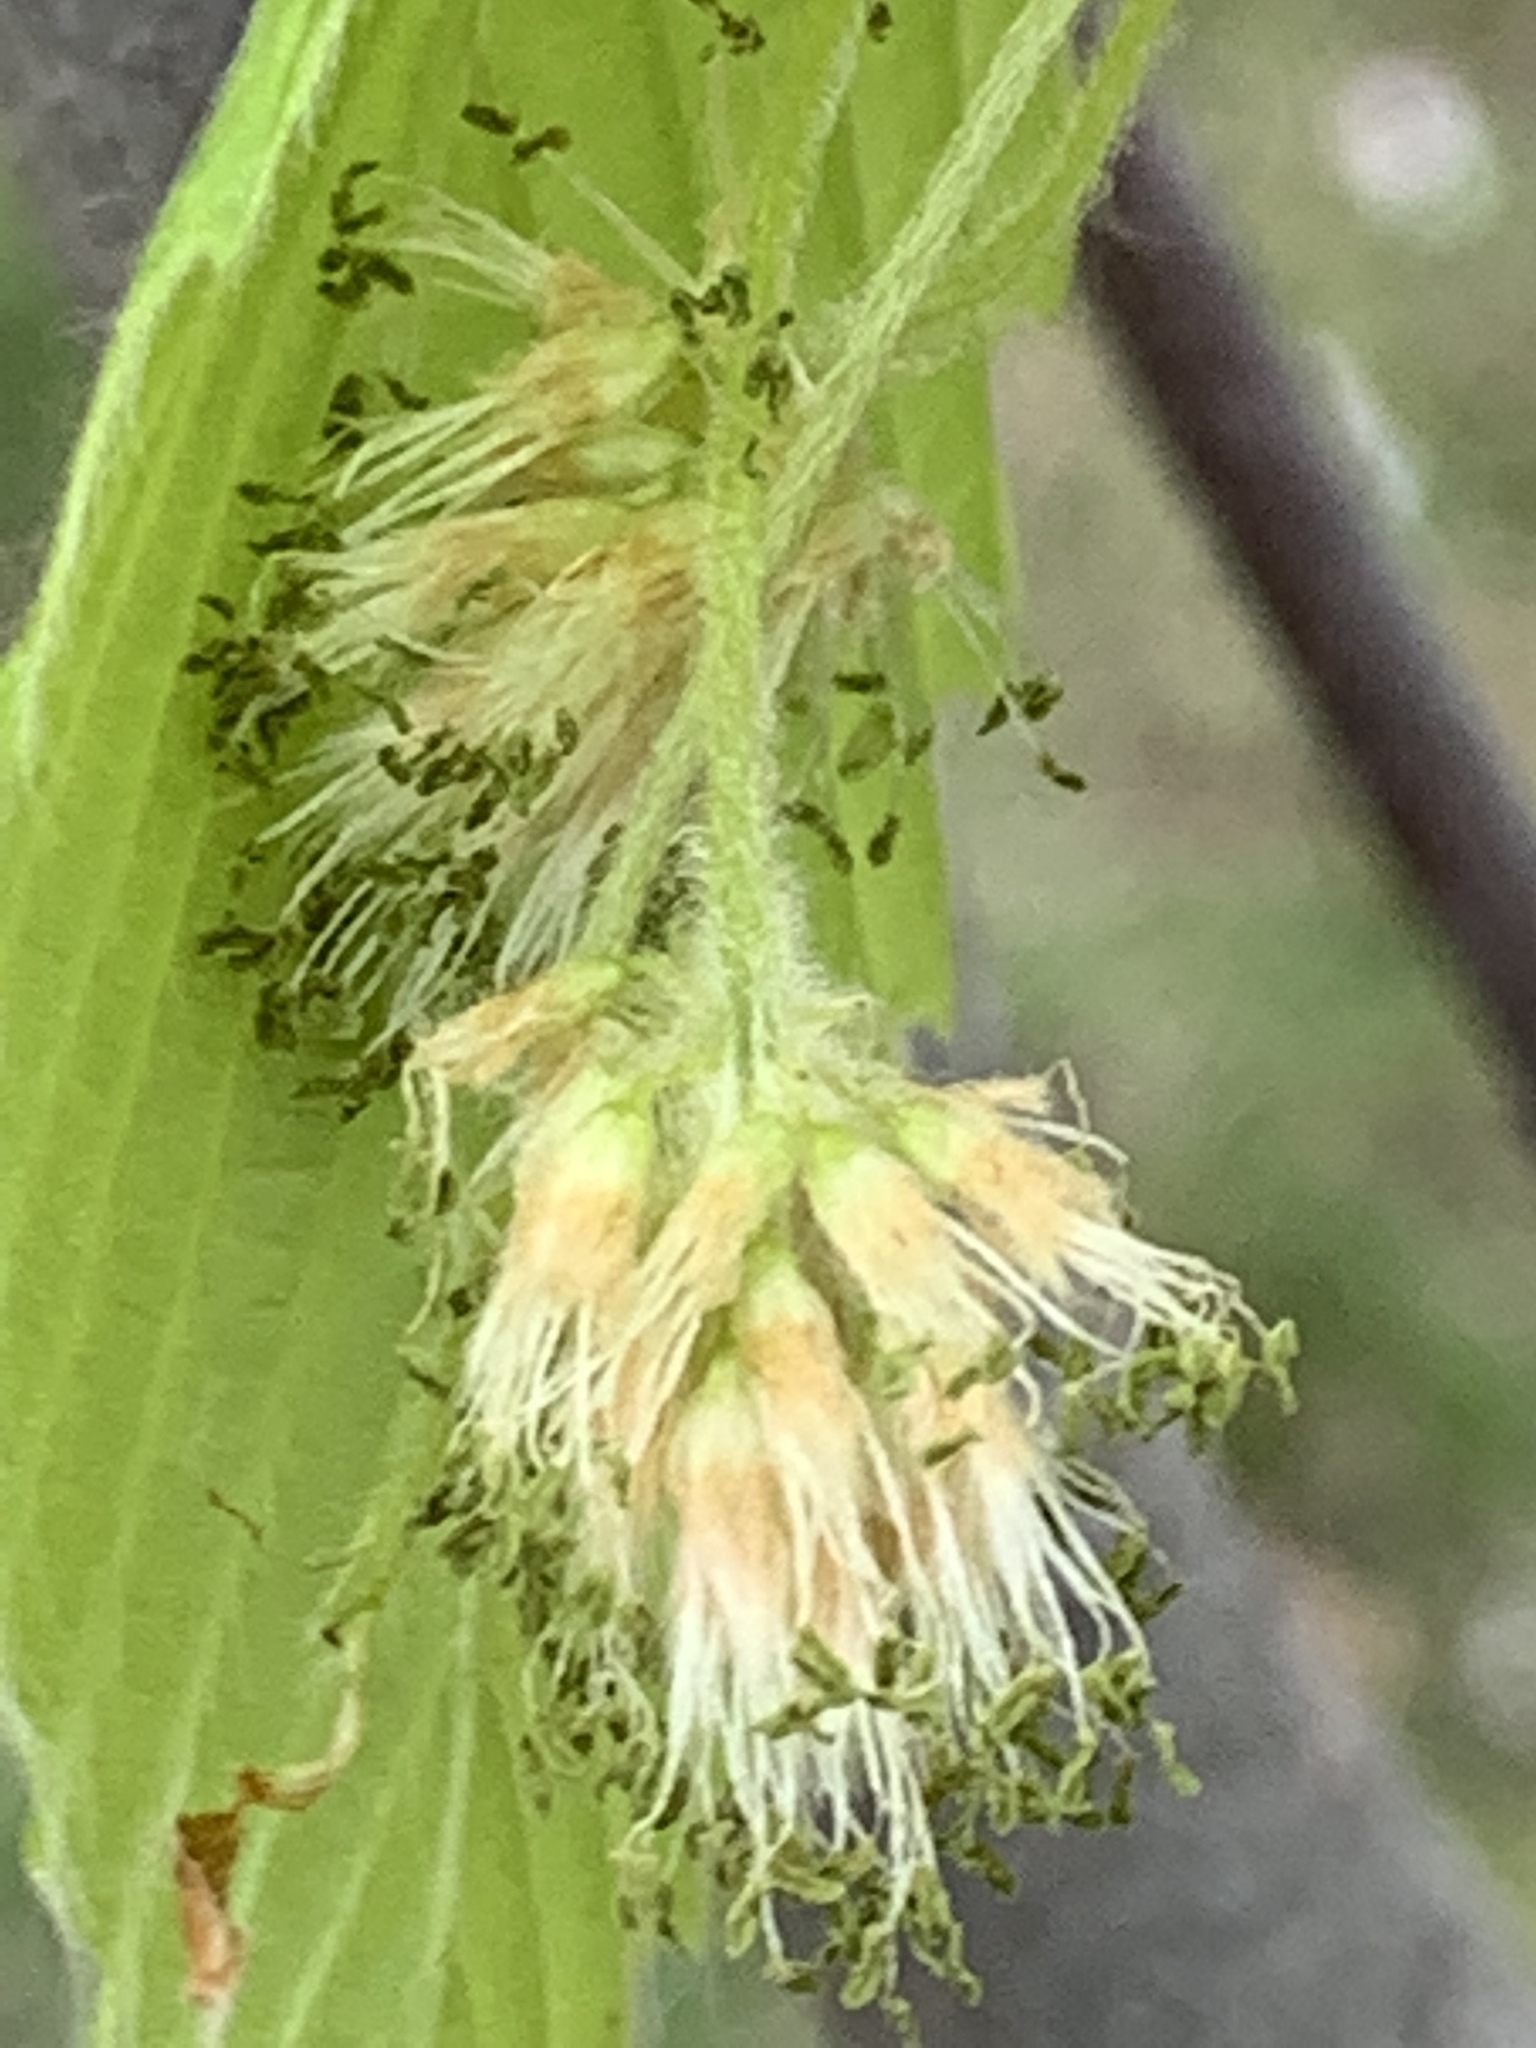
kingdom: Plantae
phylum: Tracheophyta
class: Magnoliopsida
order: Fagales
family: Fagaceae
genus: Fagus
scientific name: Fagus grandifolia
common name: American beech
